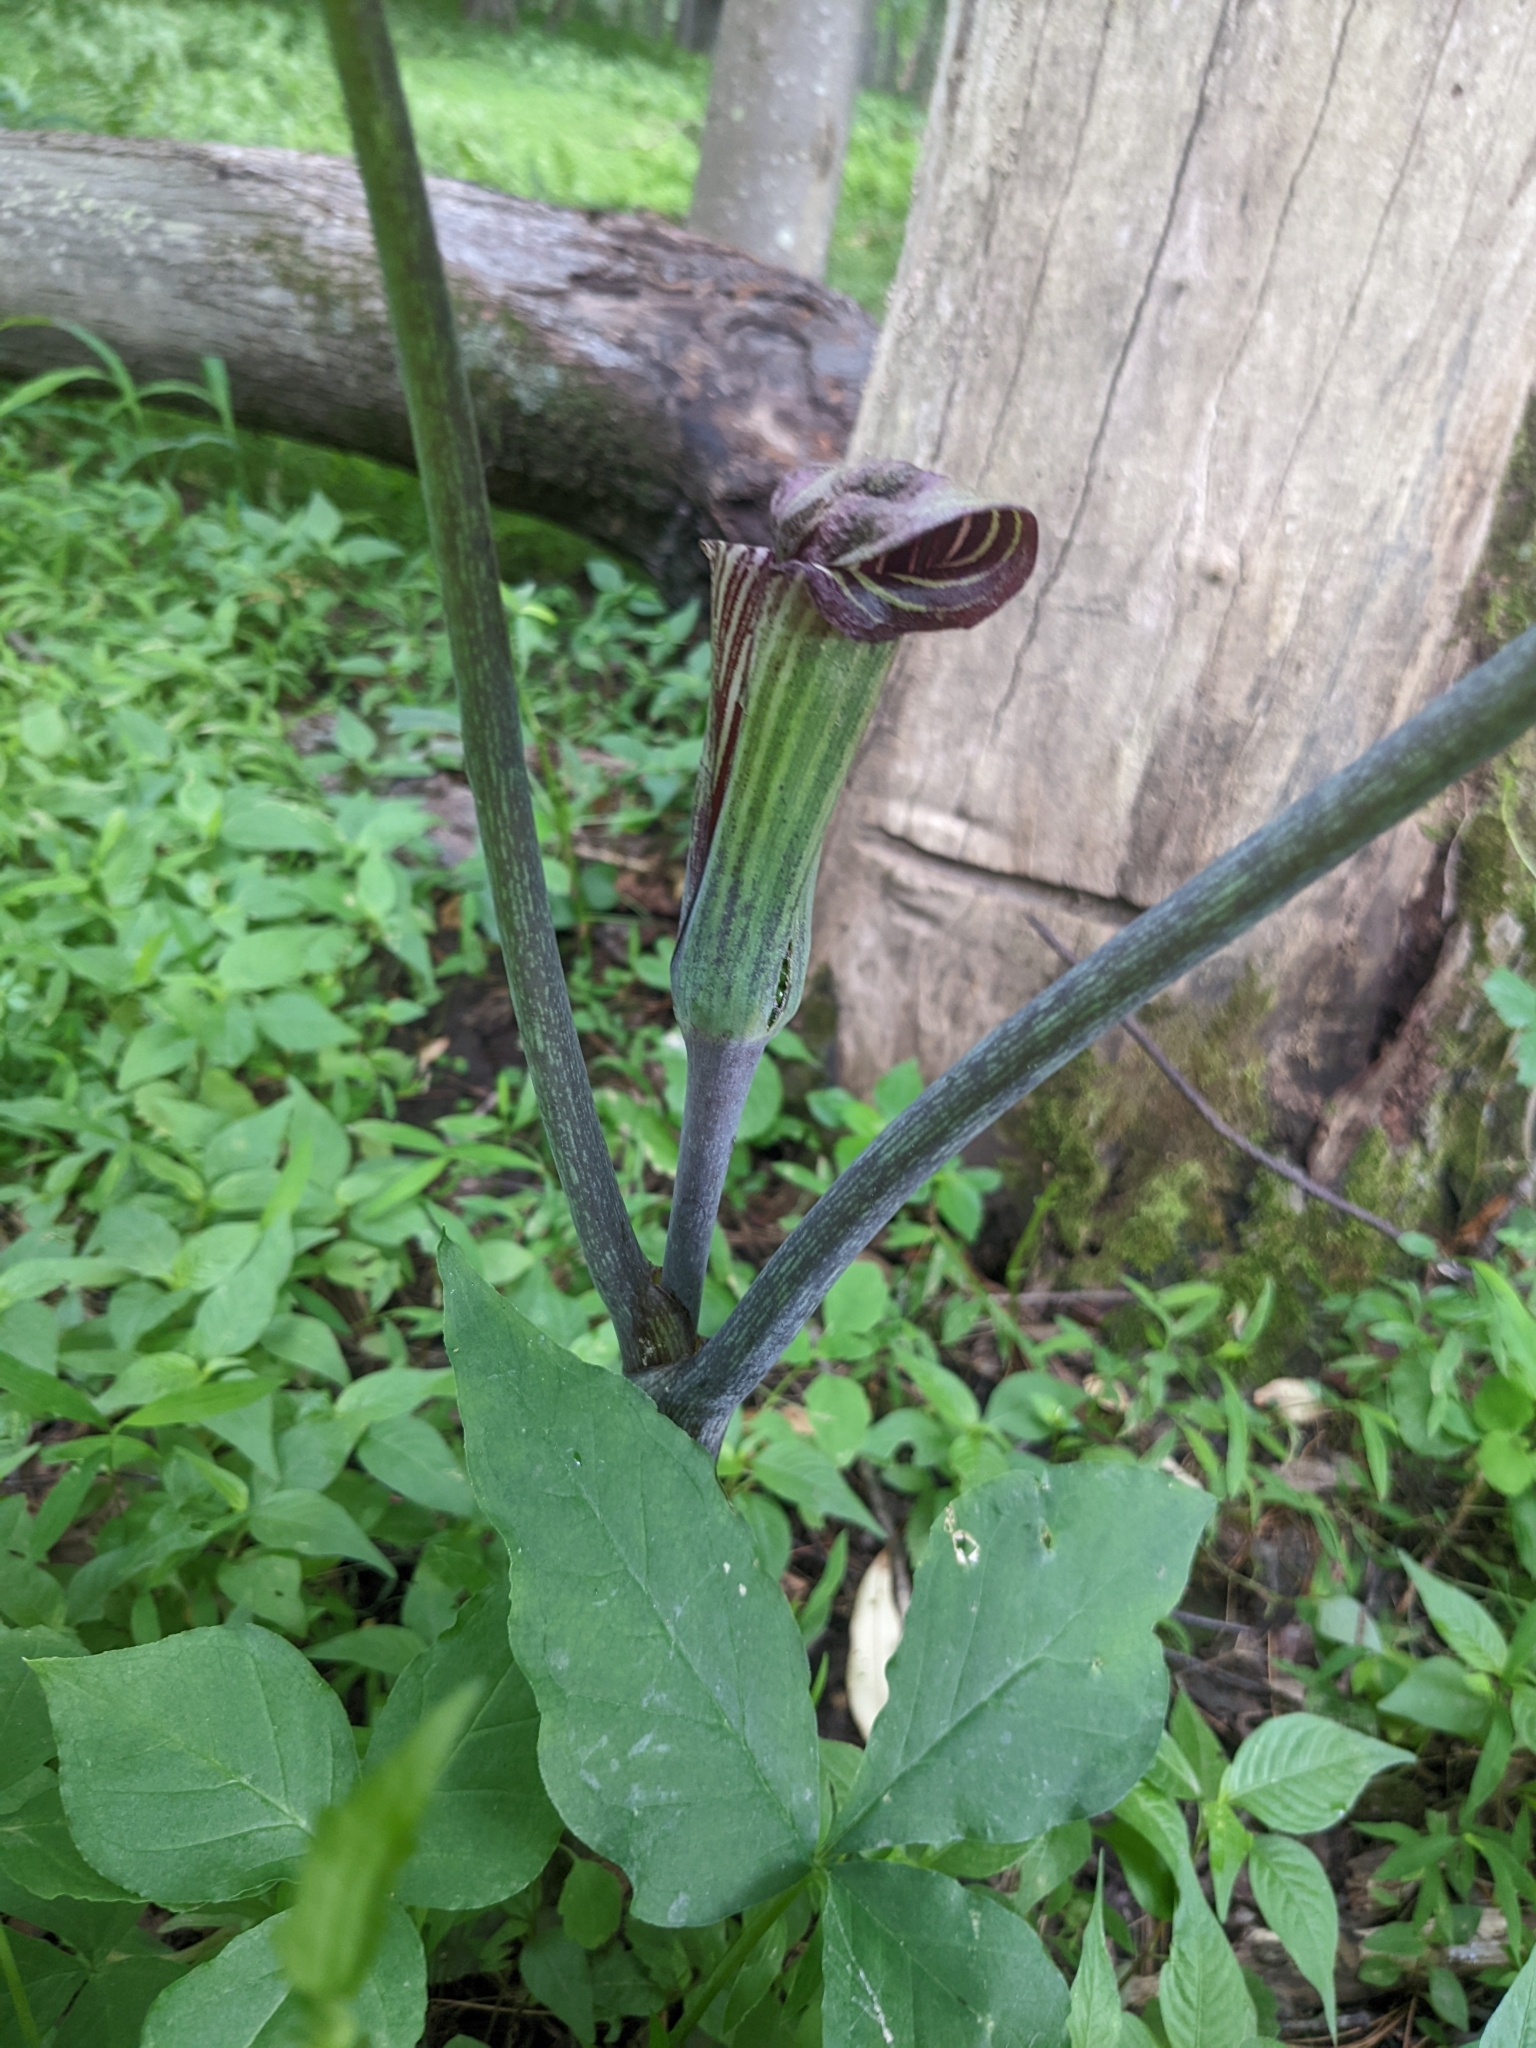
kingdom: Plantae
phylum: Tracheophyta
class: Liliopsida
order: Alismatales
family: Araceae
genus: Arisaema
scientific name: Arisaema triphyllum
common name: Jack-in-the-pulpit
